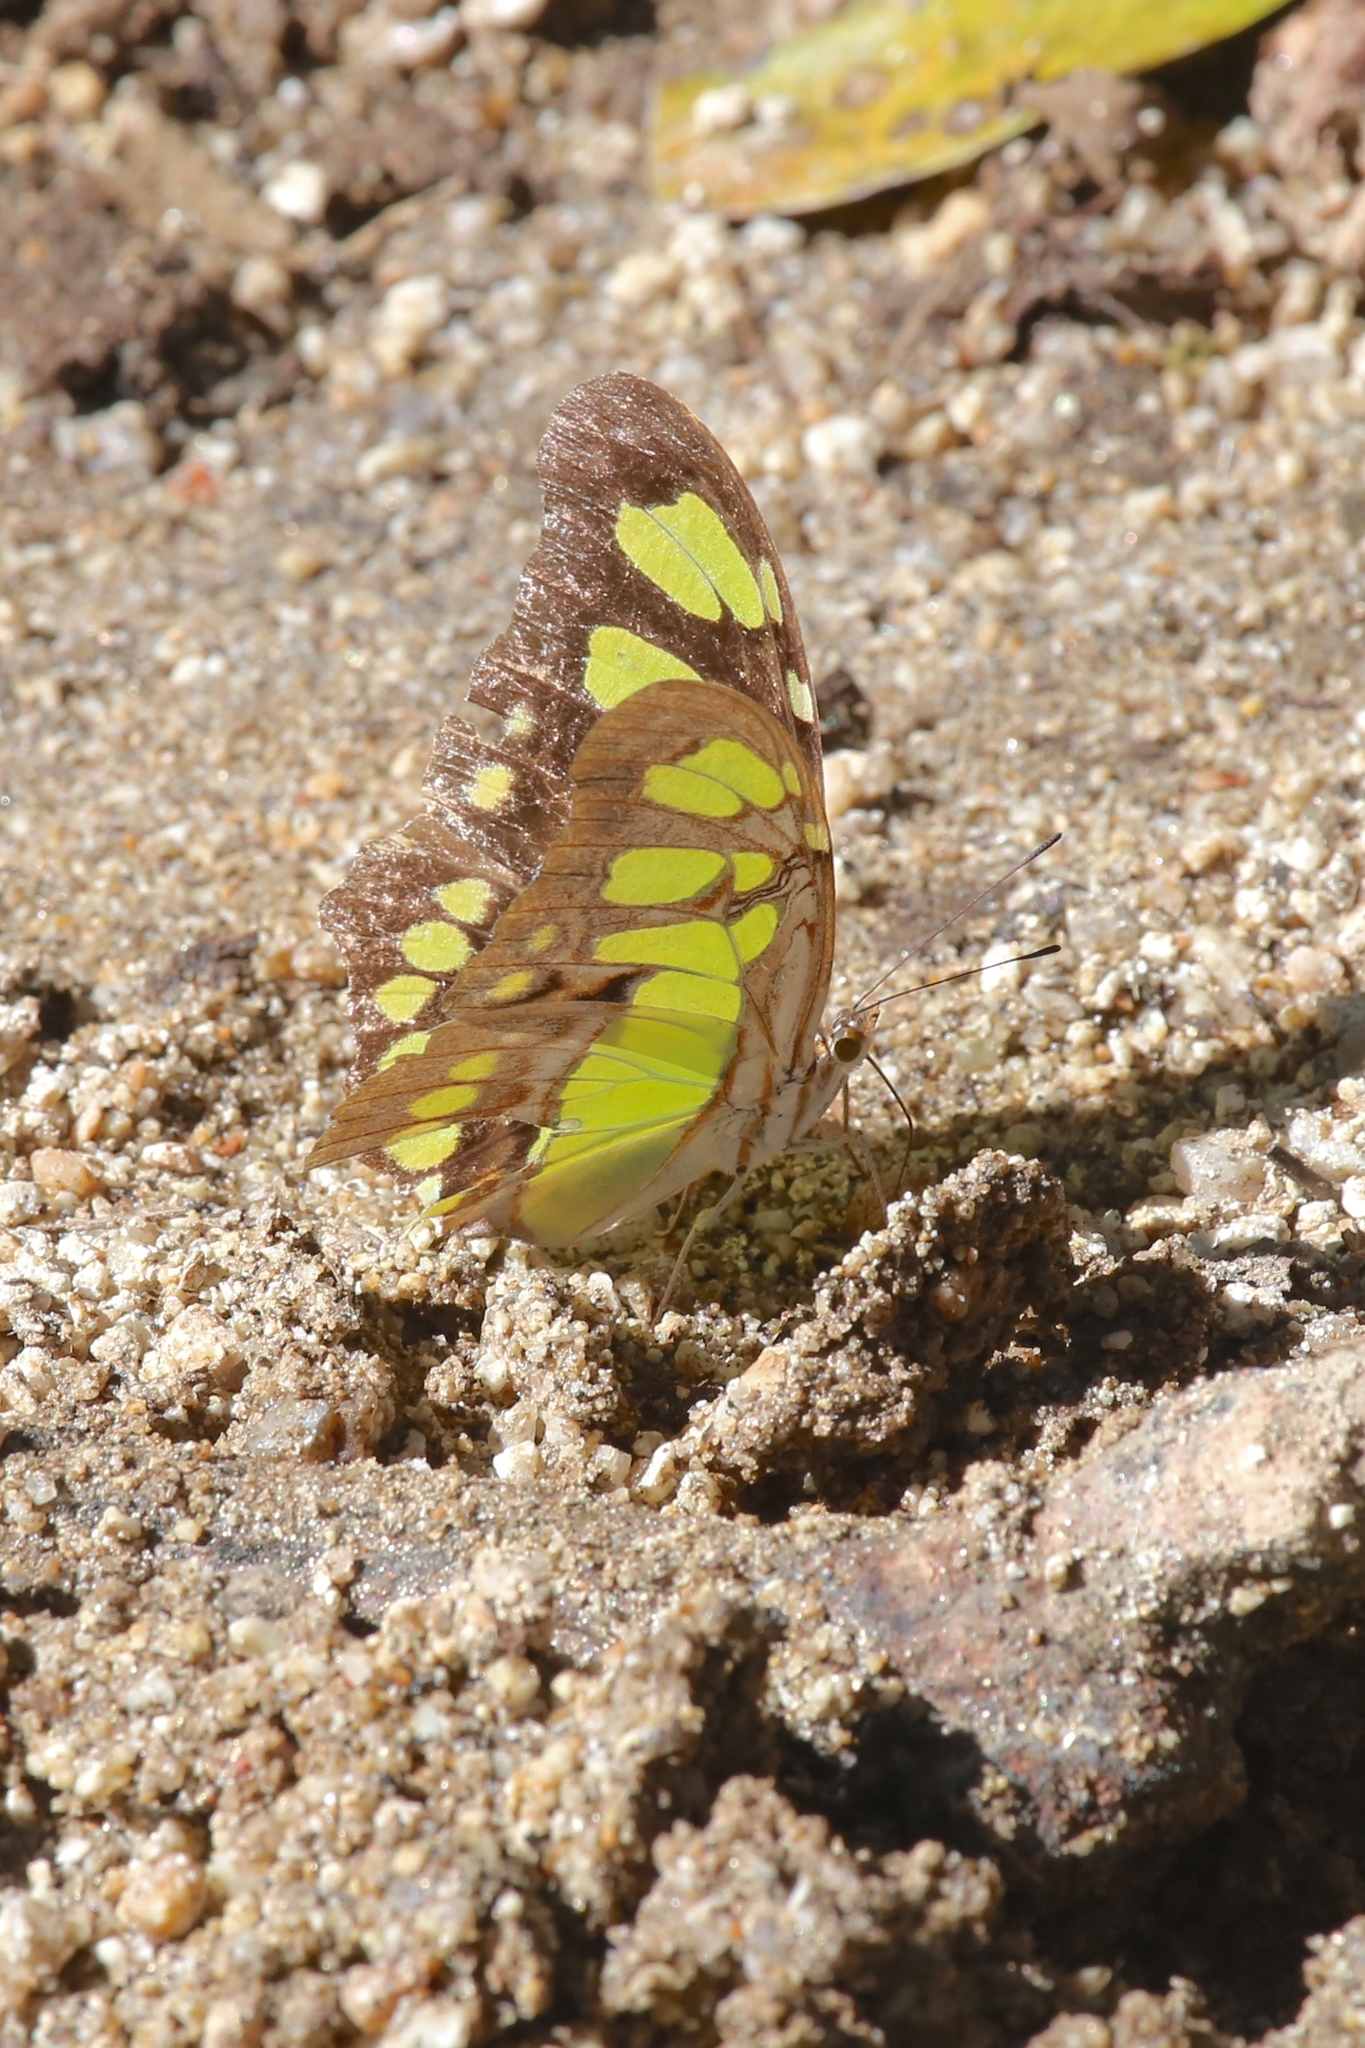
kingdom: Animalia
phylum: Arthropoda
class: Insecta
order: Lepidoptera
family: Nymphalidae
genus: Siproeta
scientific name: Siproeta stelenes
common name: Malachite
